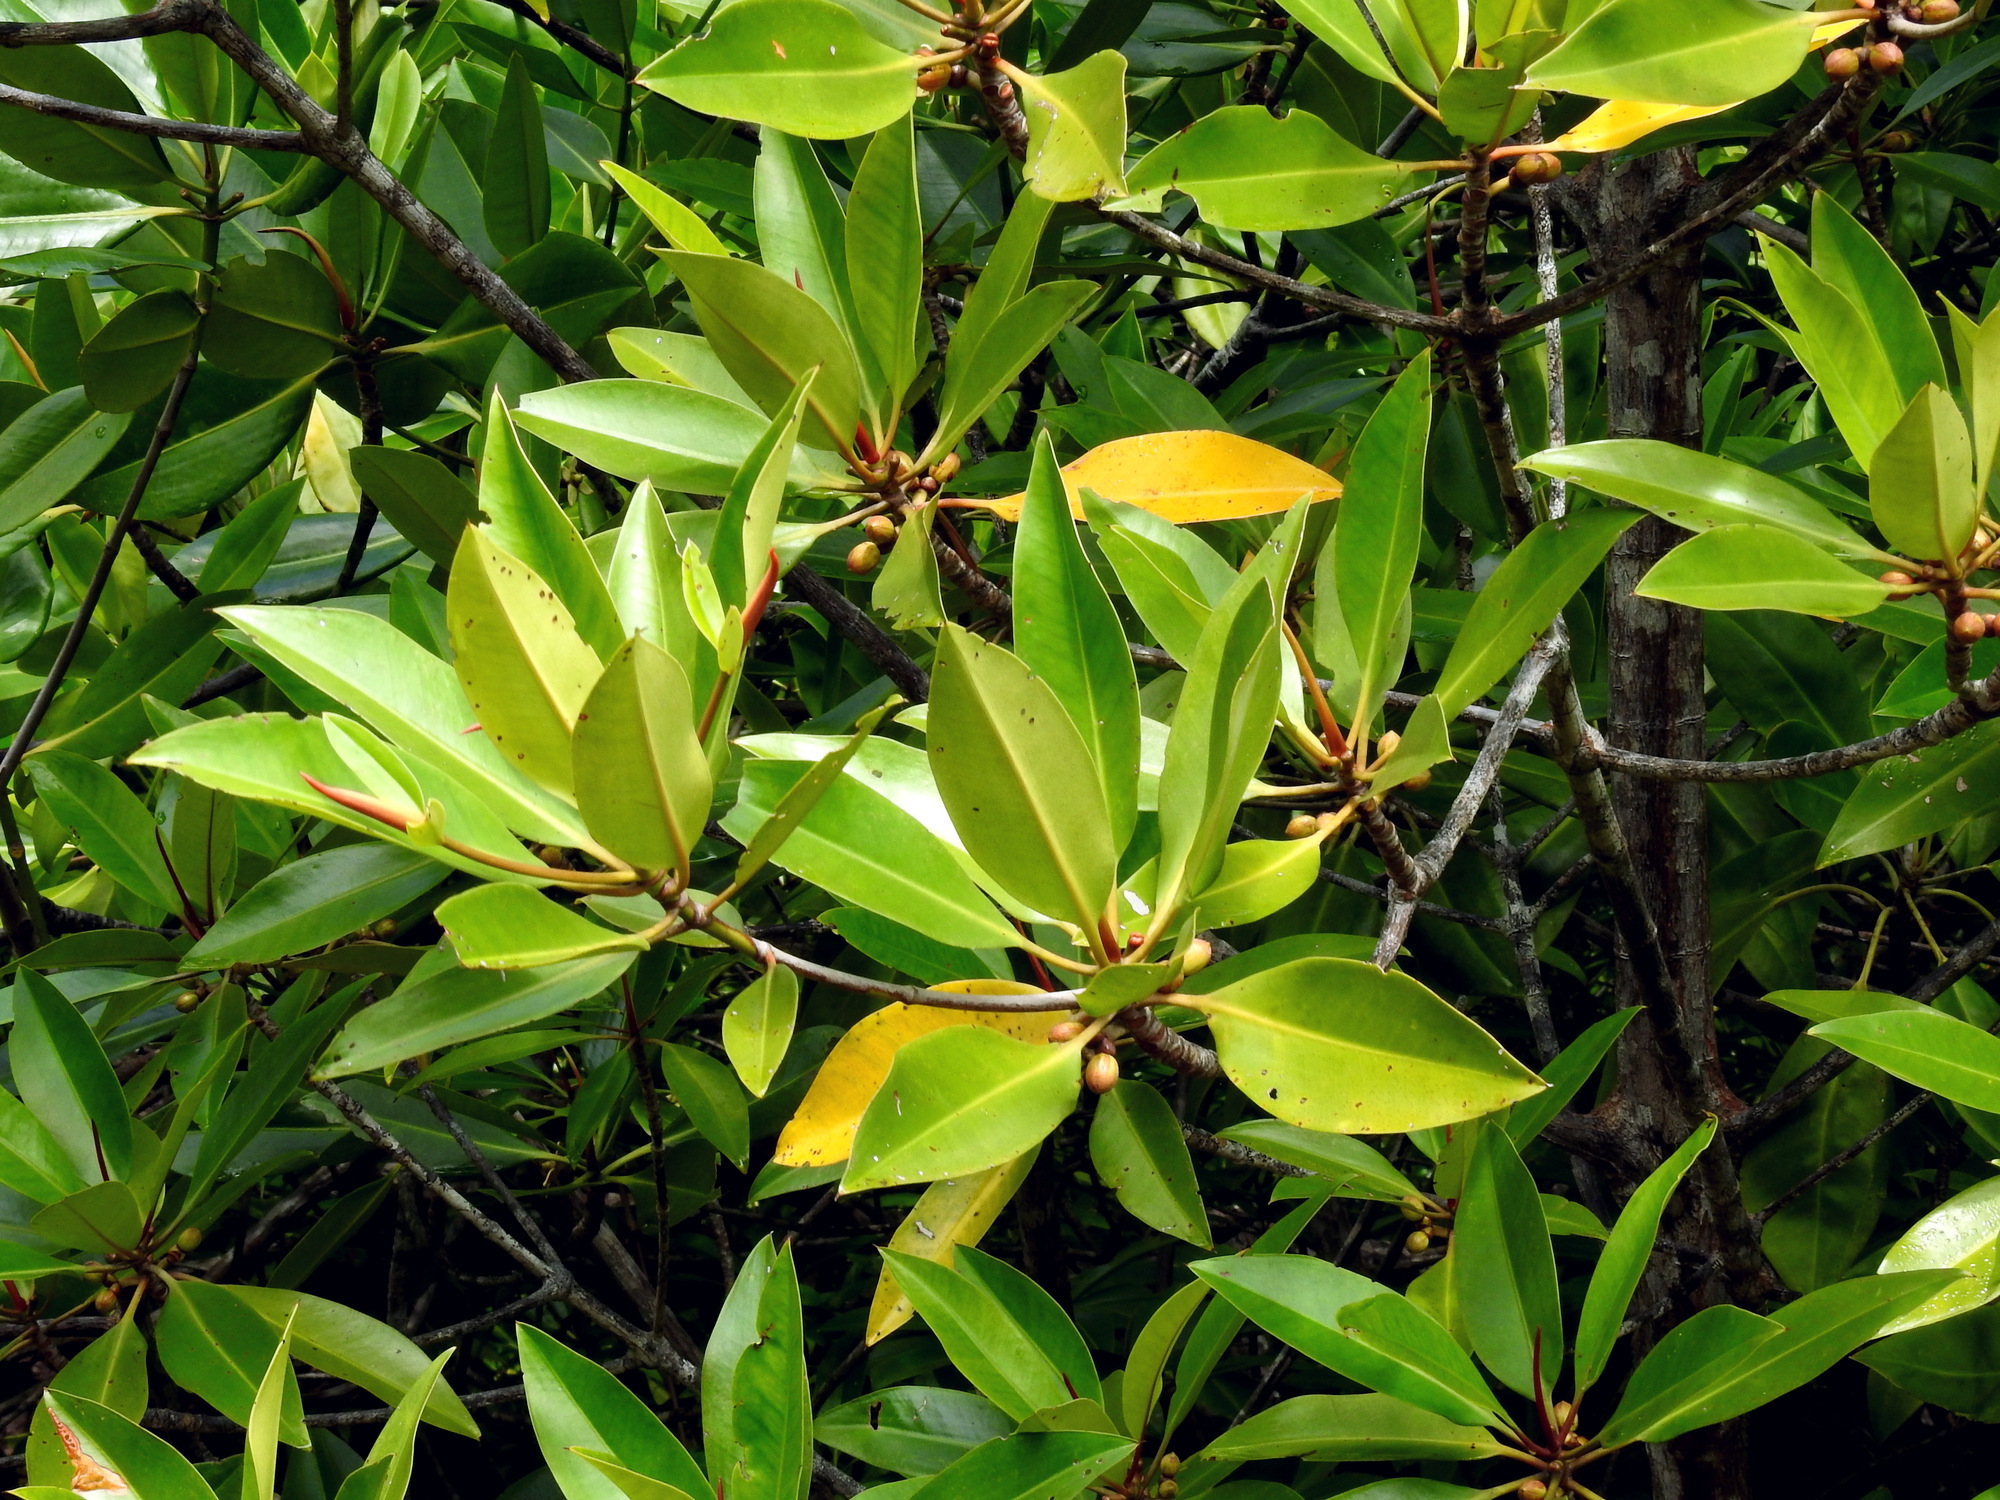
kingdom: Plantae
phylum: Tracheophyta
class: Magnoliopsida
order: Malpighiales
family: Rhizophoraceae
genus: Rhizophora
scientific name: Rhizophora apiculata
